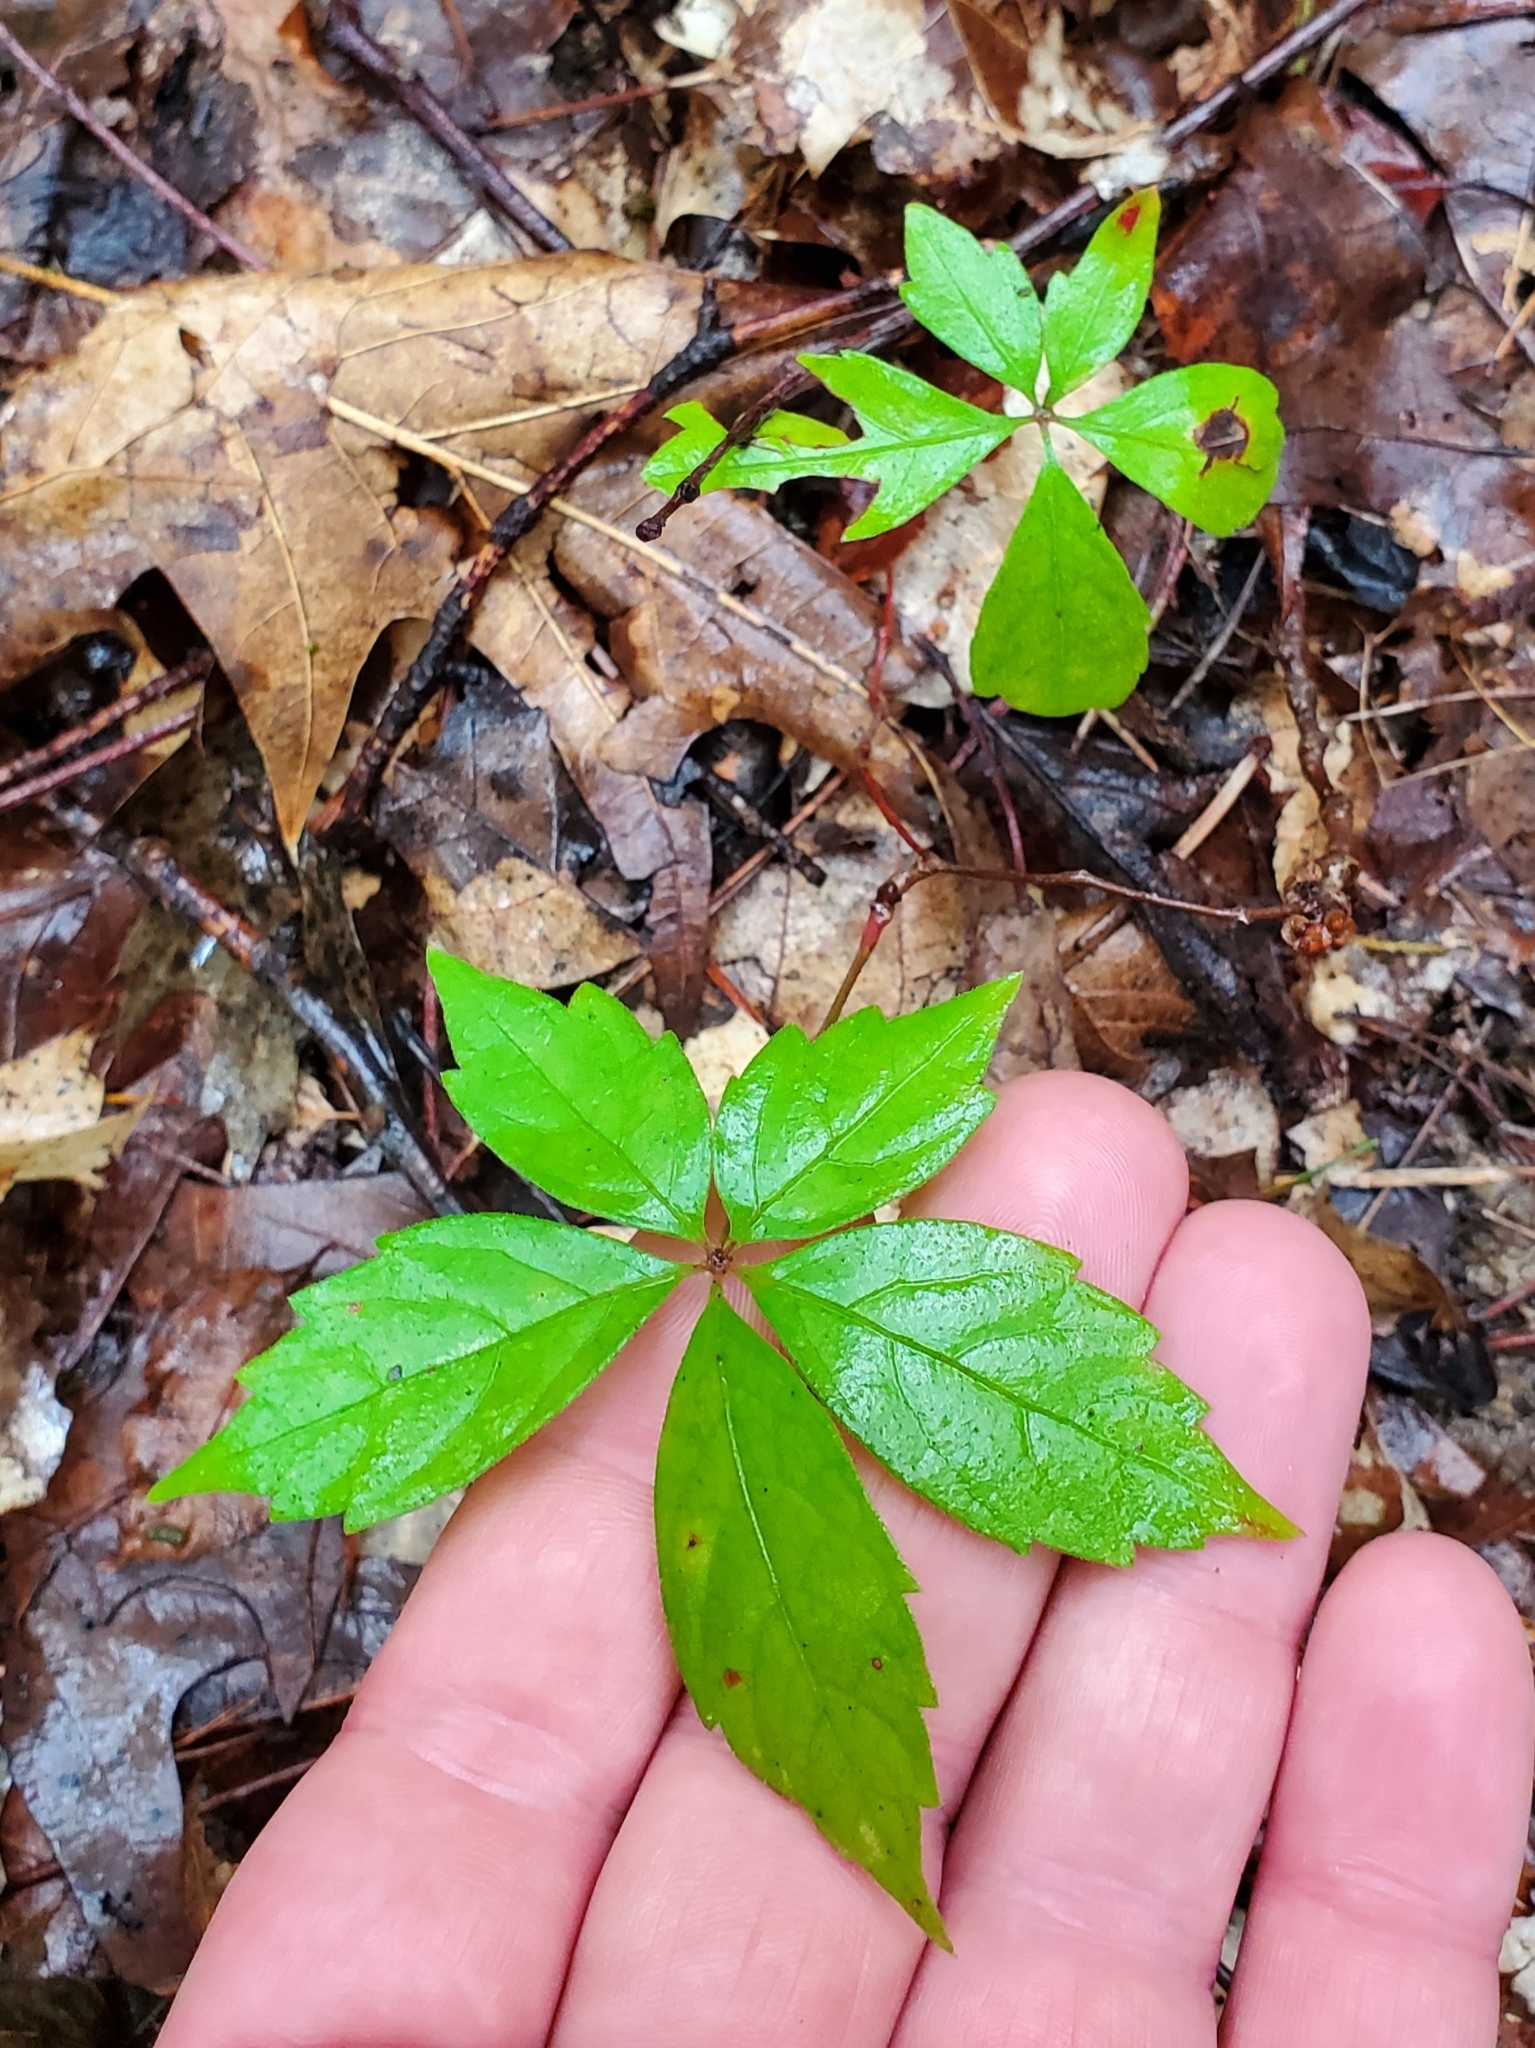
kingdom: Plantae
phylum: Tracheophyta
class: Magnoliopsida
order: Vitales
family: Vitaceae
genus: Parthenocissus
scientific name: Parthenocissus quinquefolia
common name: Virginia-creeper
